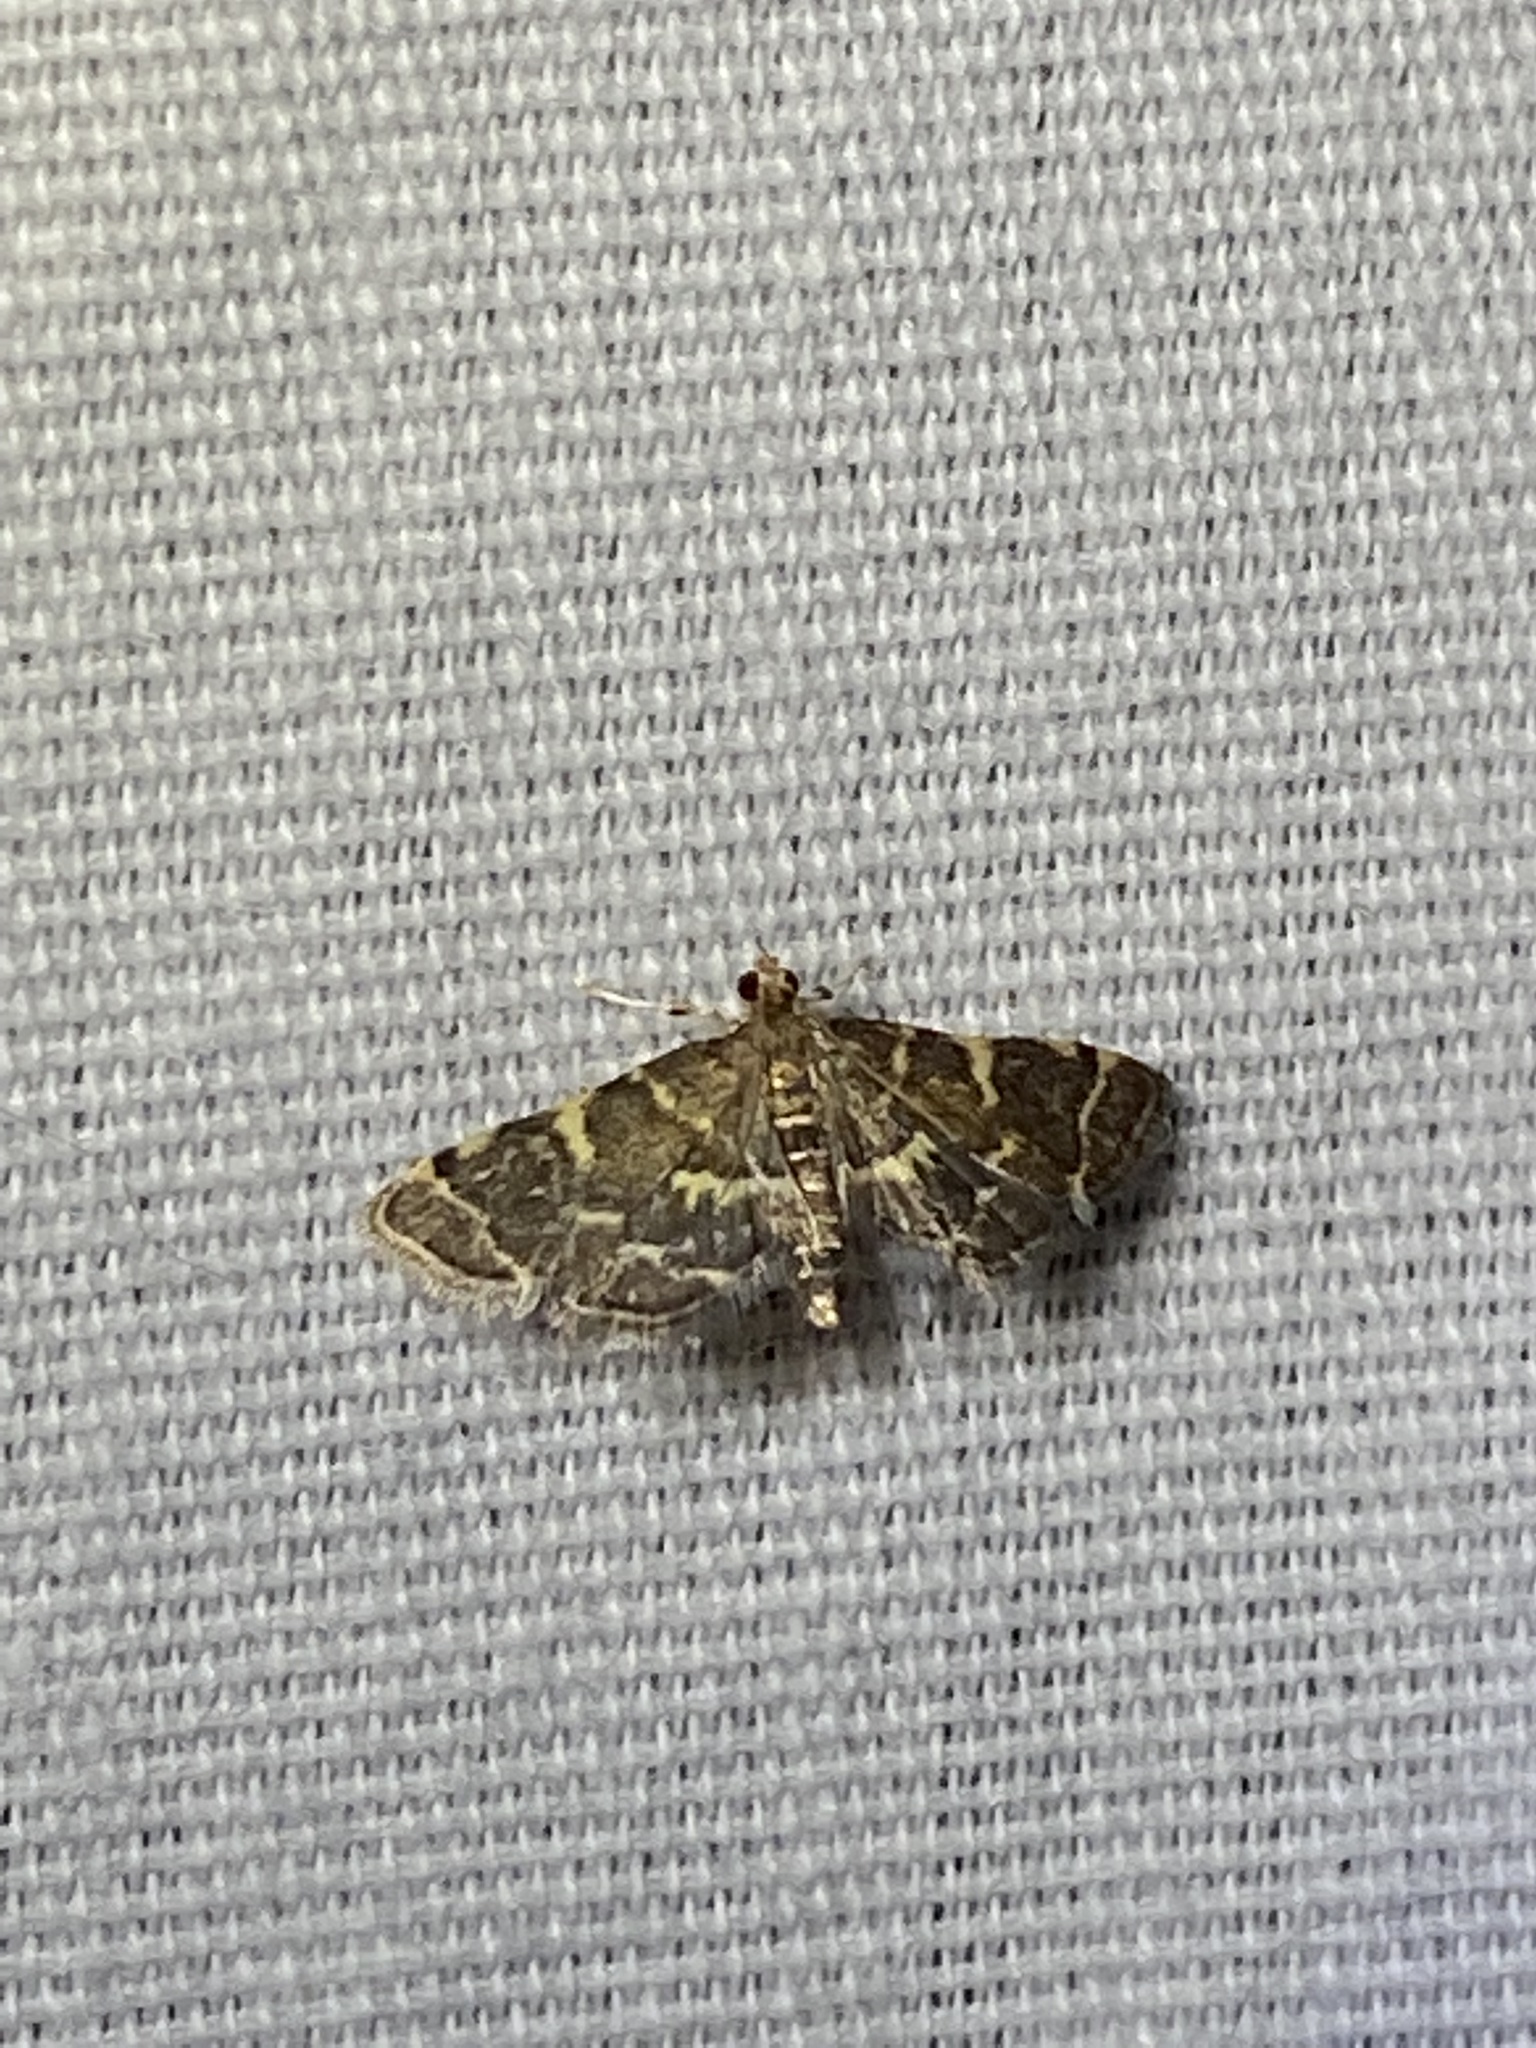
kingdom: Animalia
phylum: Arthropoda
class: Insecta
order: Lepidoptera
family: Crambidae
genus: Anageshna
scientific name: Anageshna primordialis
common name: Yellow-spotted webworm moth
